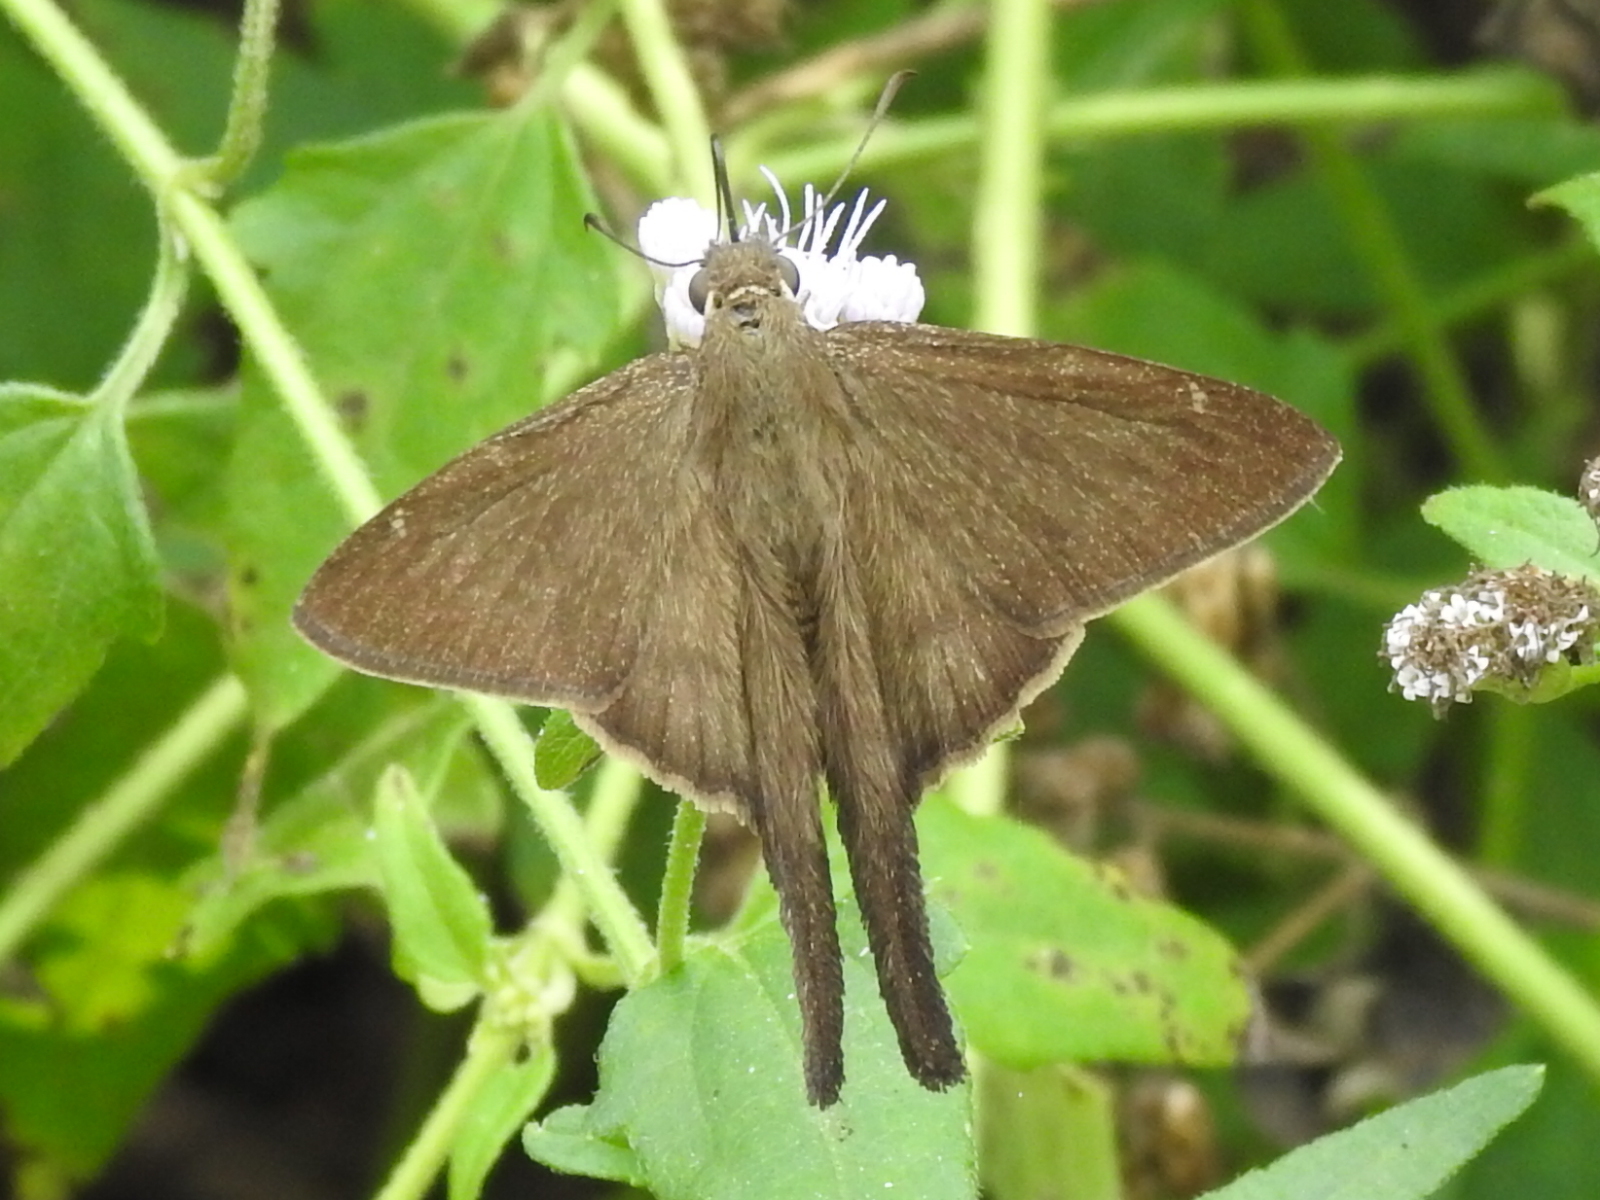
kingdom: Animalia
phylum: Arthropoda
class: Insecta
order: Lepidoptera
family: Hesperiidae
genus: Urbanus
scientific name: Urbanus procne
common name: Brown longtail
